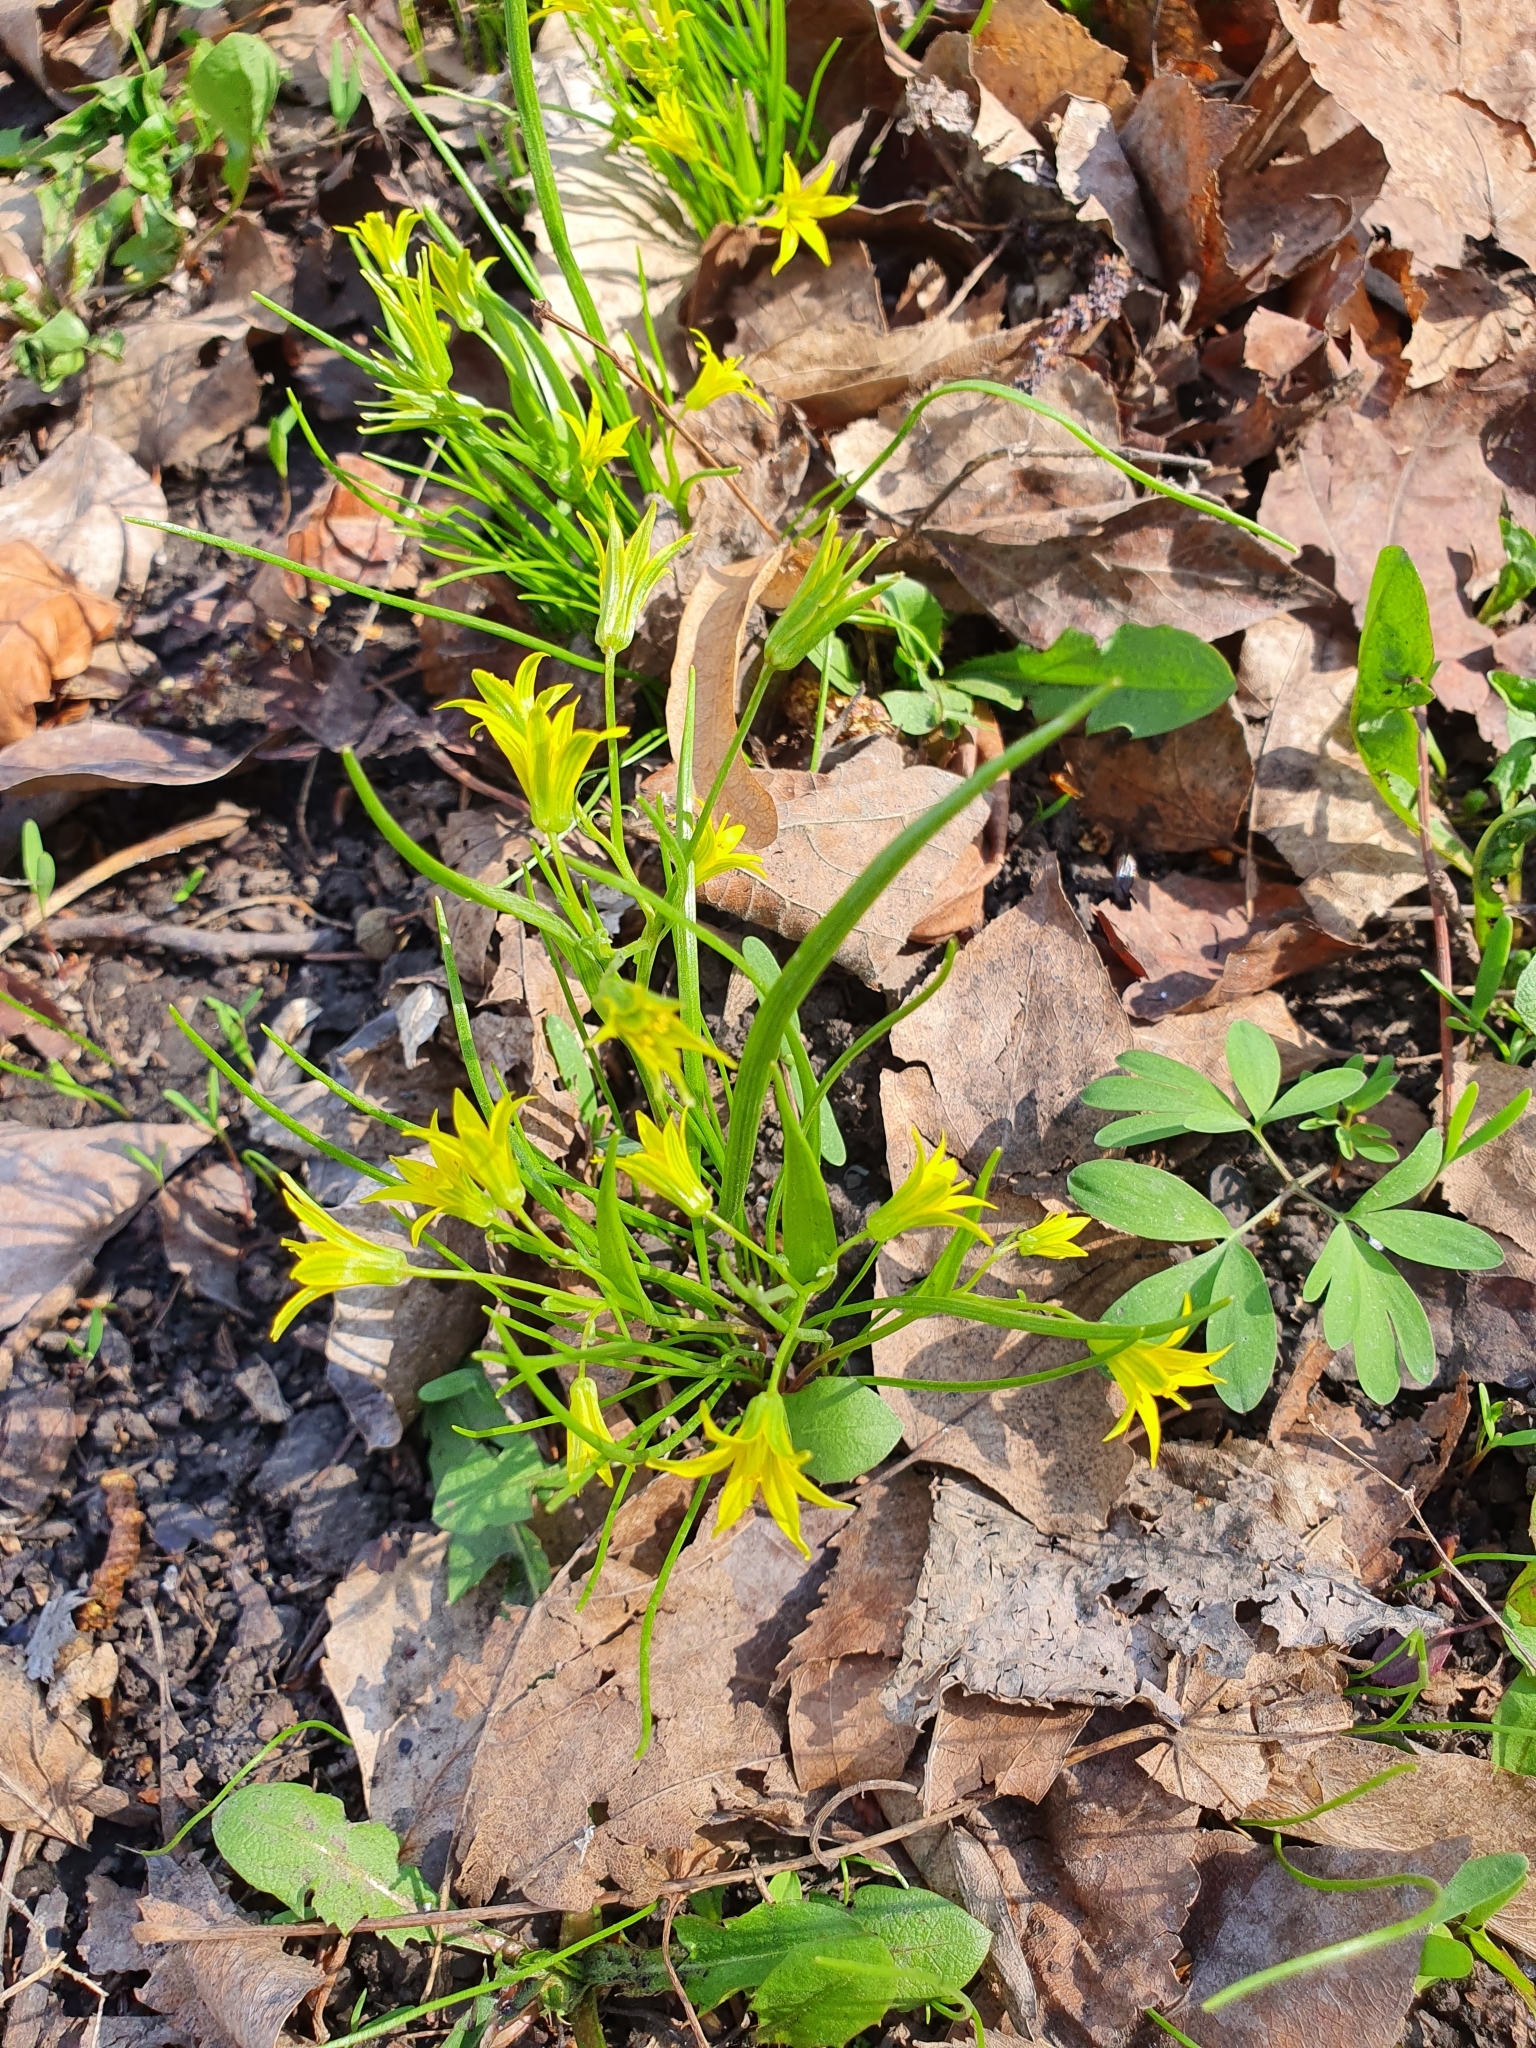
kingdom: Plantae
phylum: Tracheophyta
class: Liliopsida
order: Liliales
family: Liliaceae
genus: Gagea
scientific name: Gagea minima
